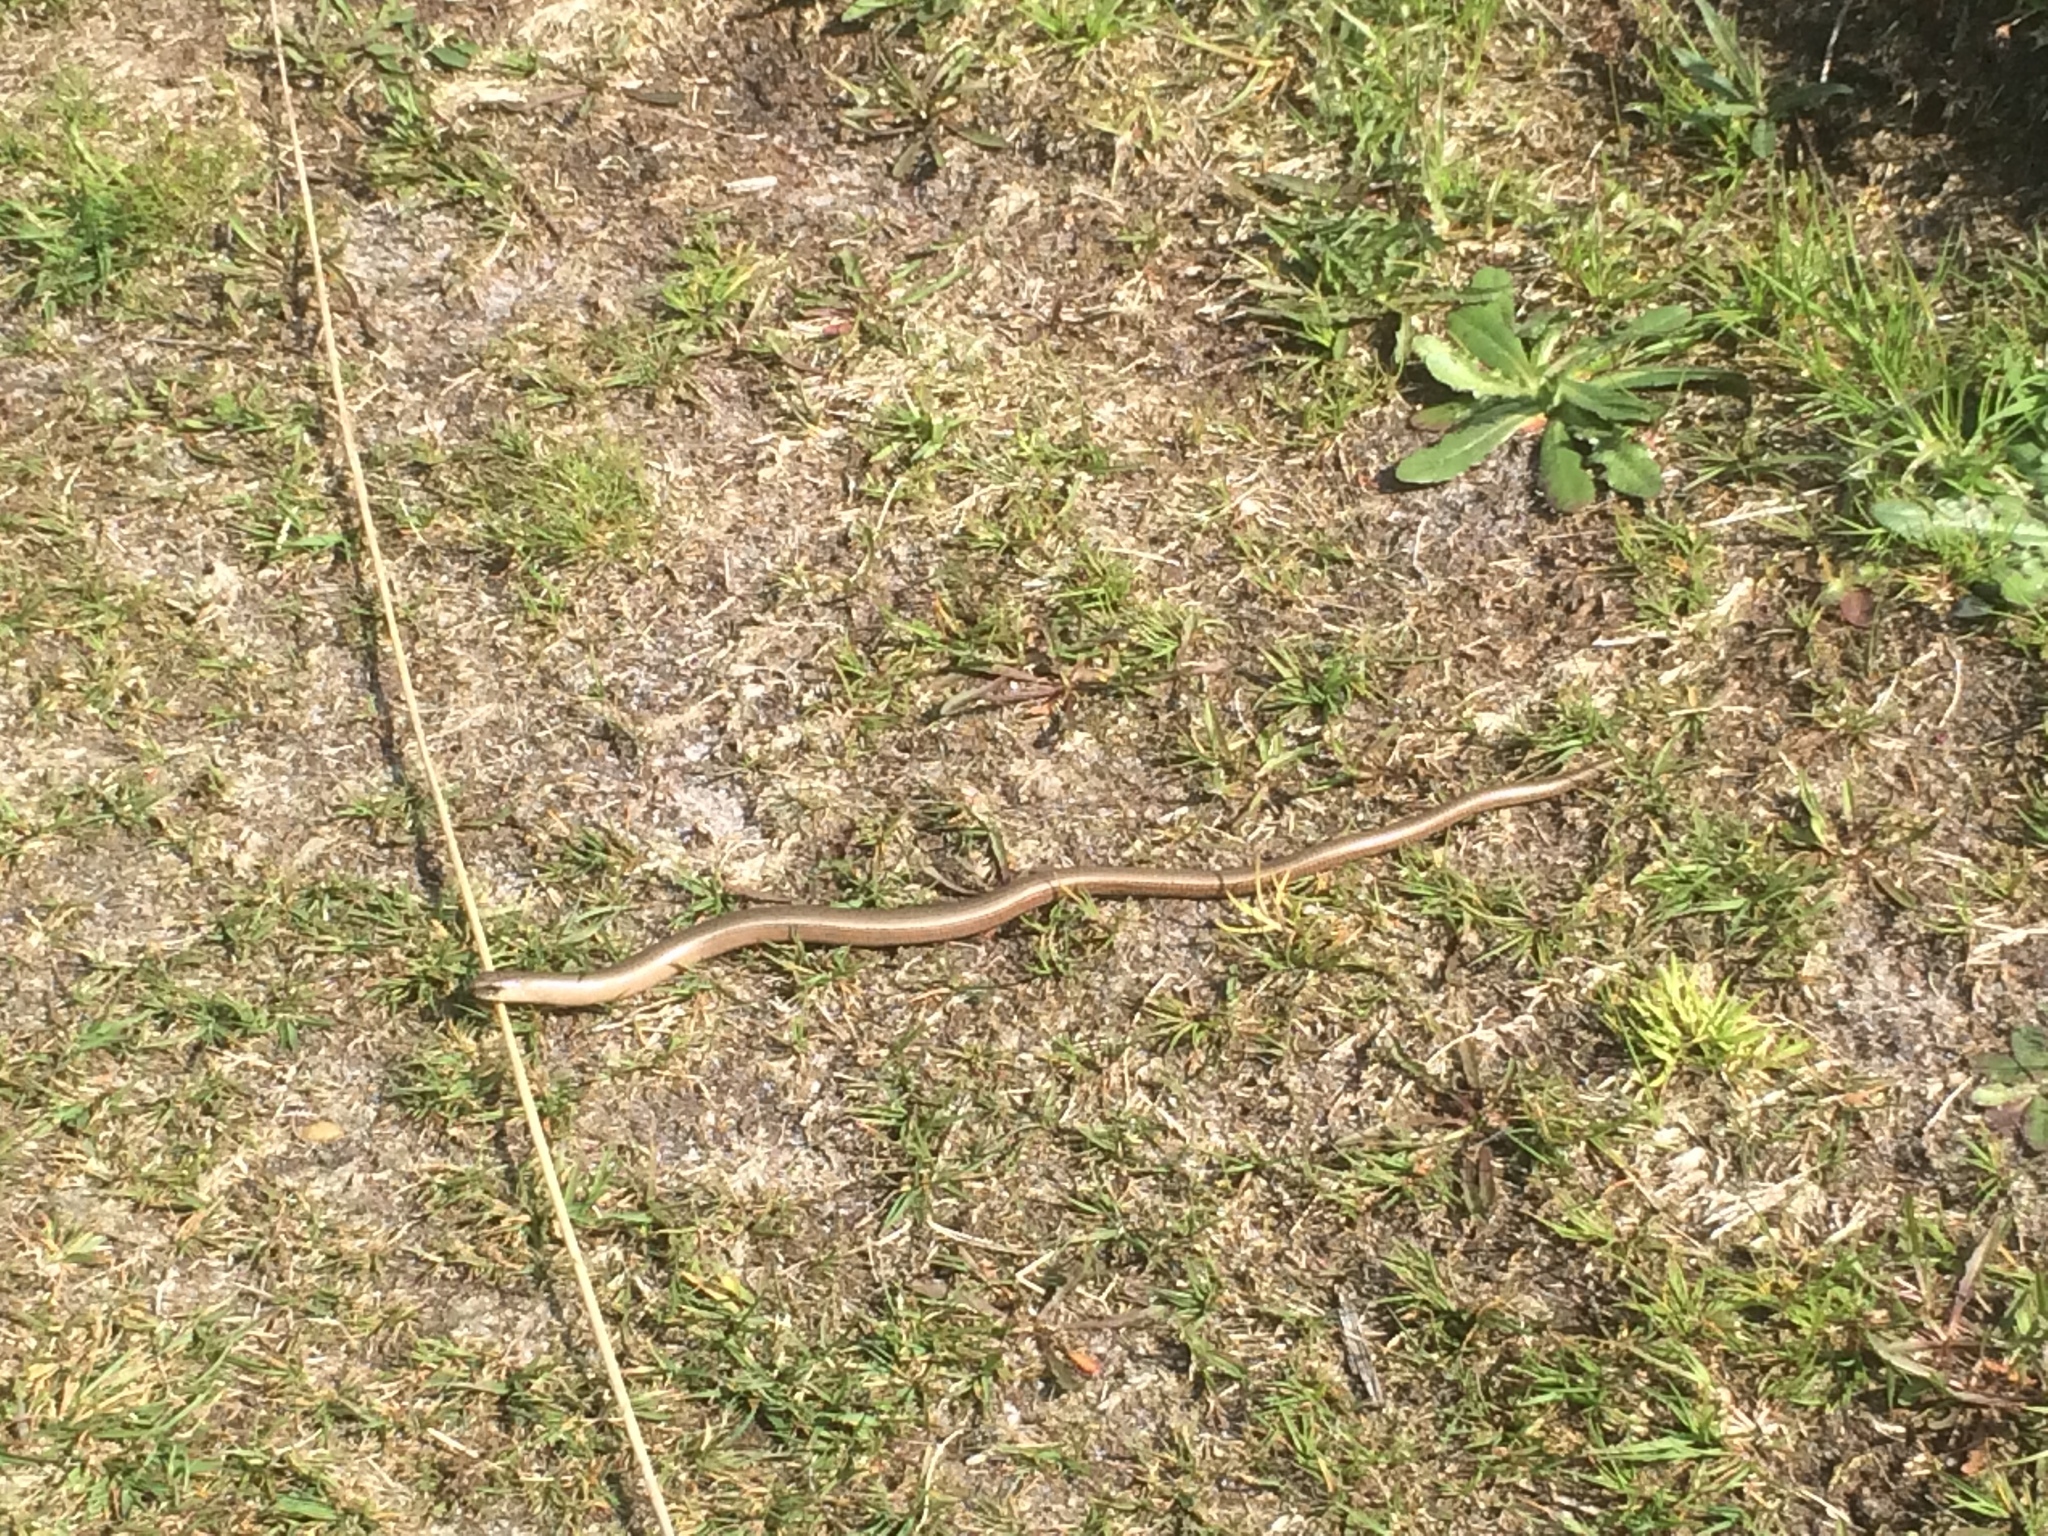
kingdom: Animalia
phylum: Chordata
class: Squamata
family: Anguidae
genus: Anguis
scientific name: Anguis fragilis
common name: Slow worm
